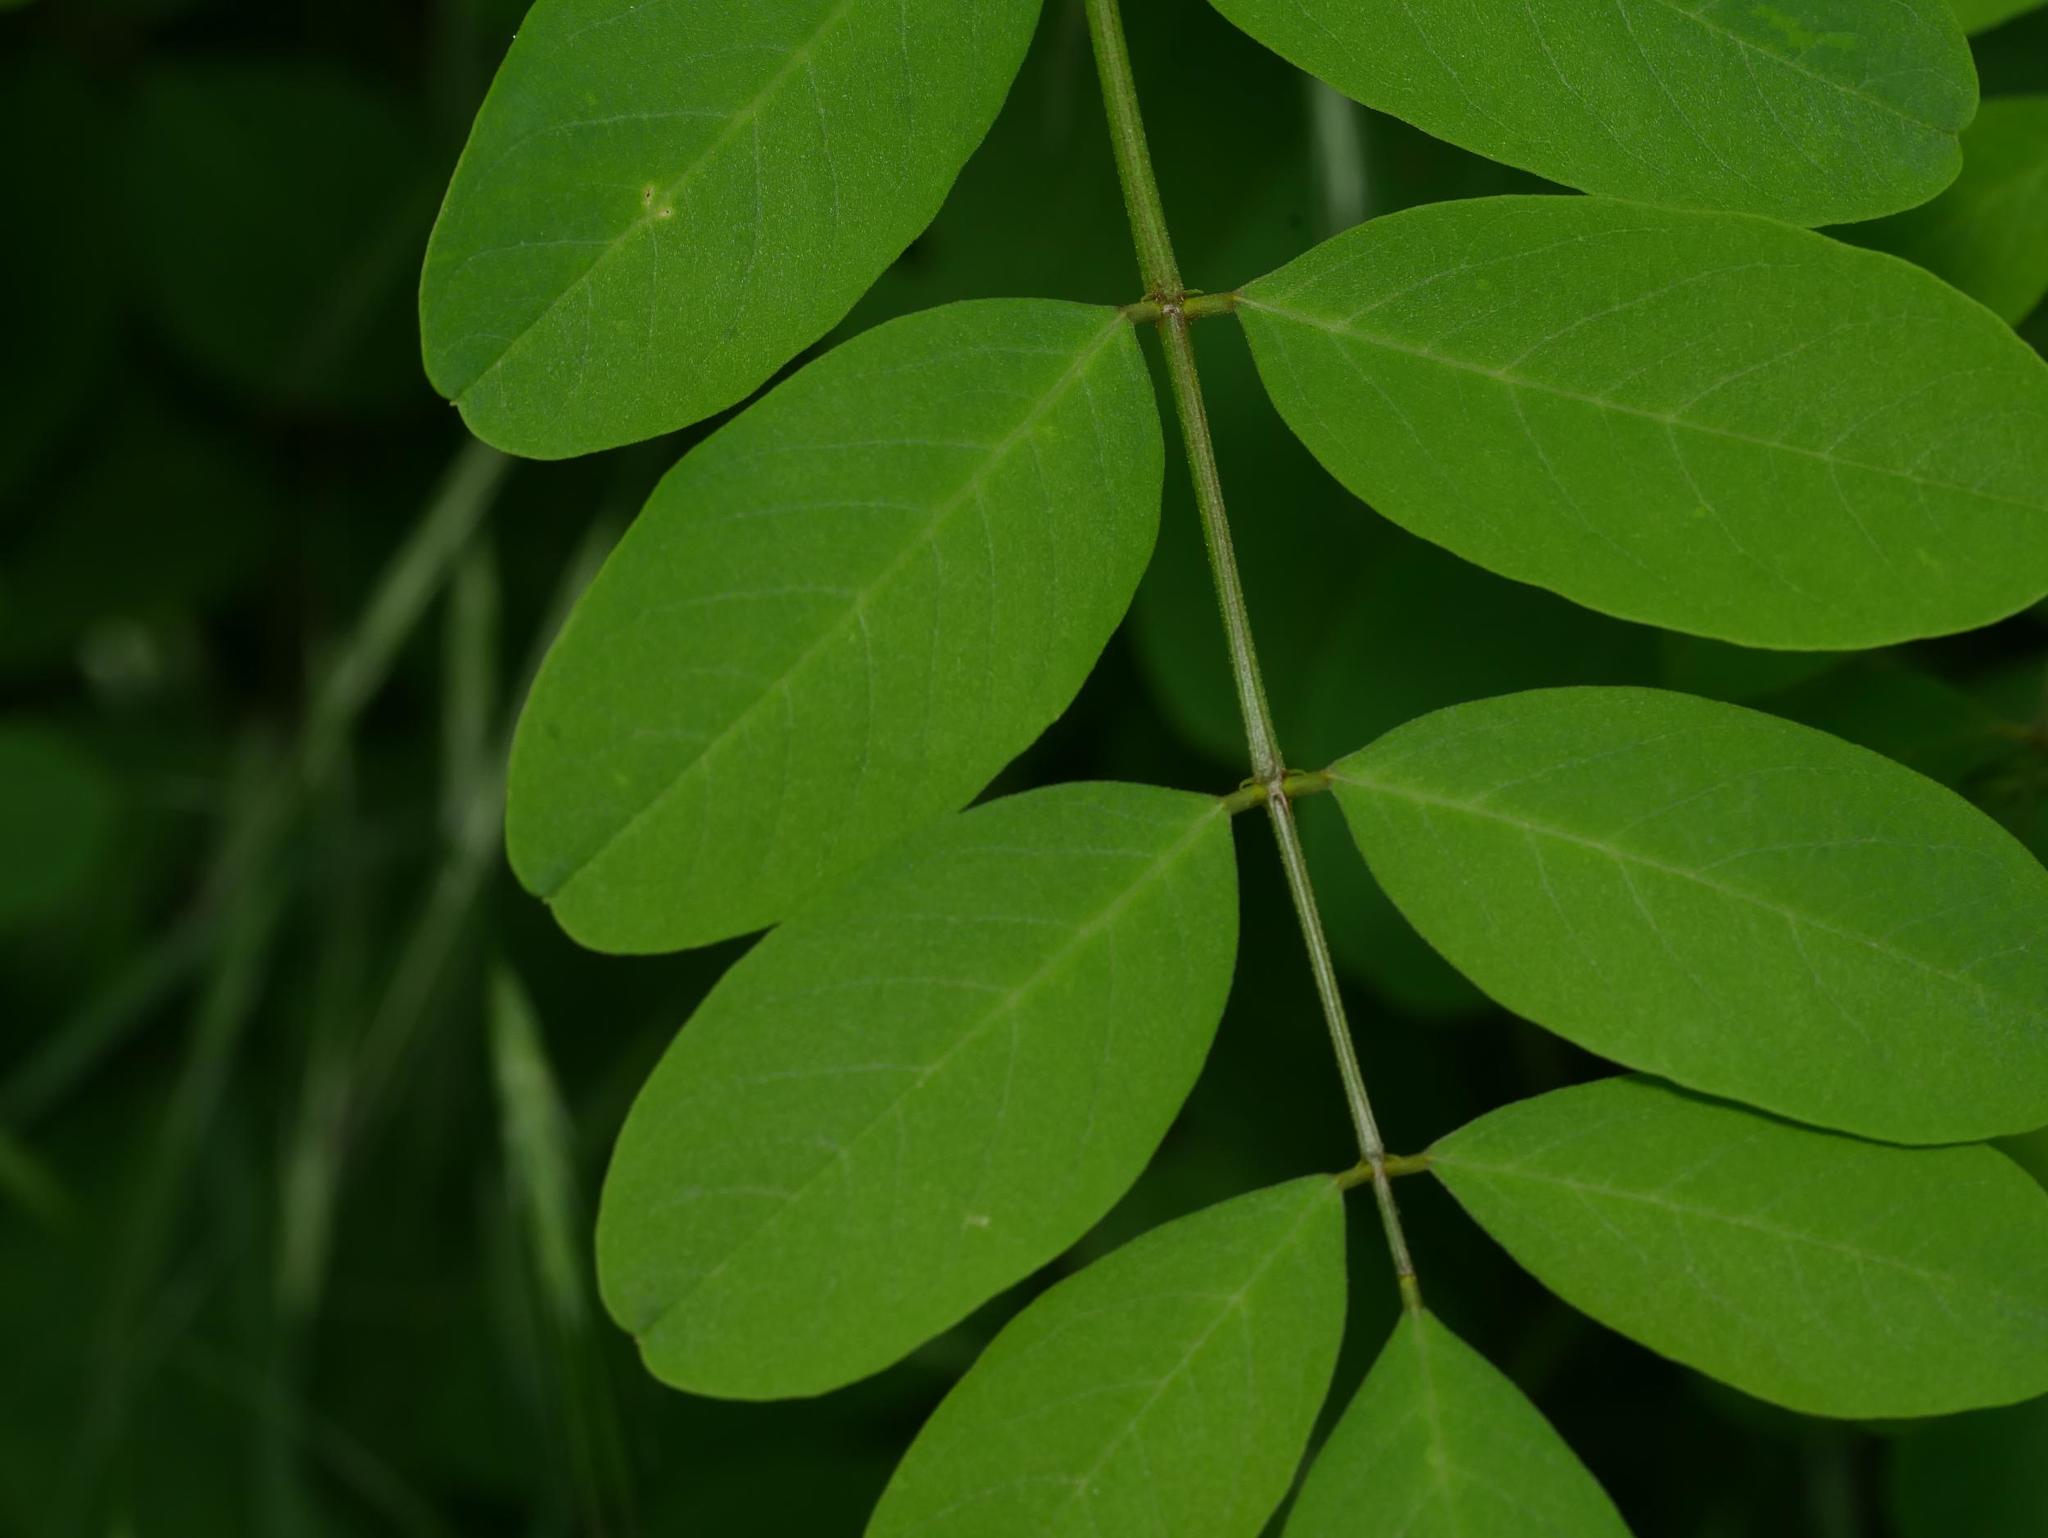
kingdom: Plantae
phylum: Tracheophyta
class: Magnoliopsida
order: Fabales
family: Fabaceae
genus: Robinia
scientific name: Robinia pseudoacacia
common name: Black locust
